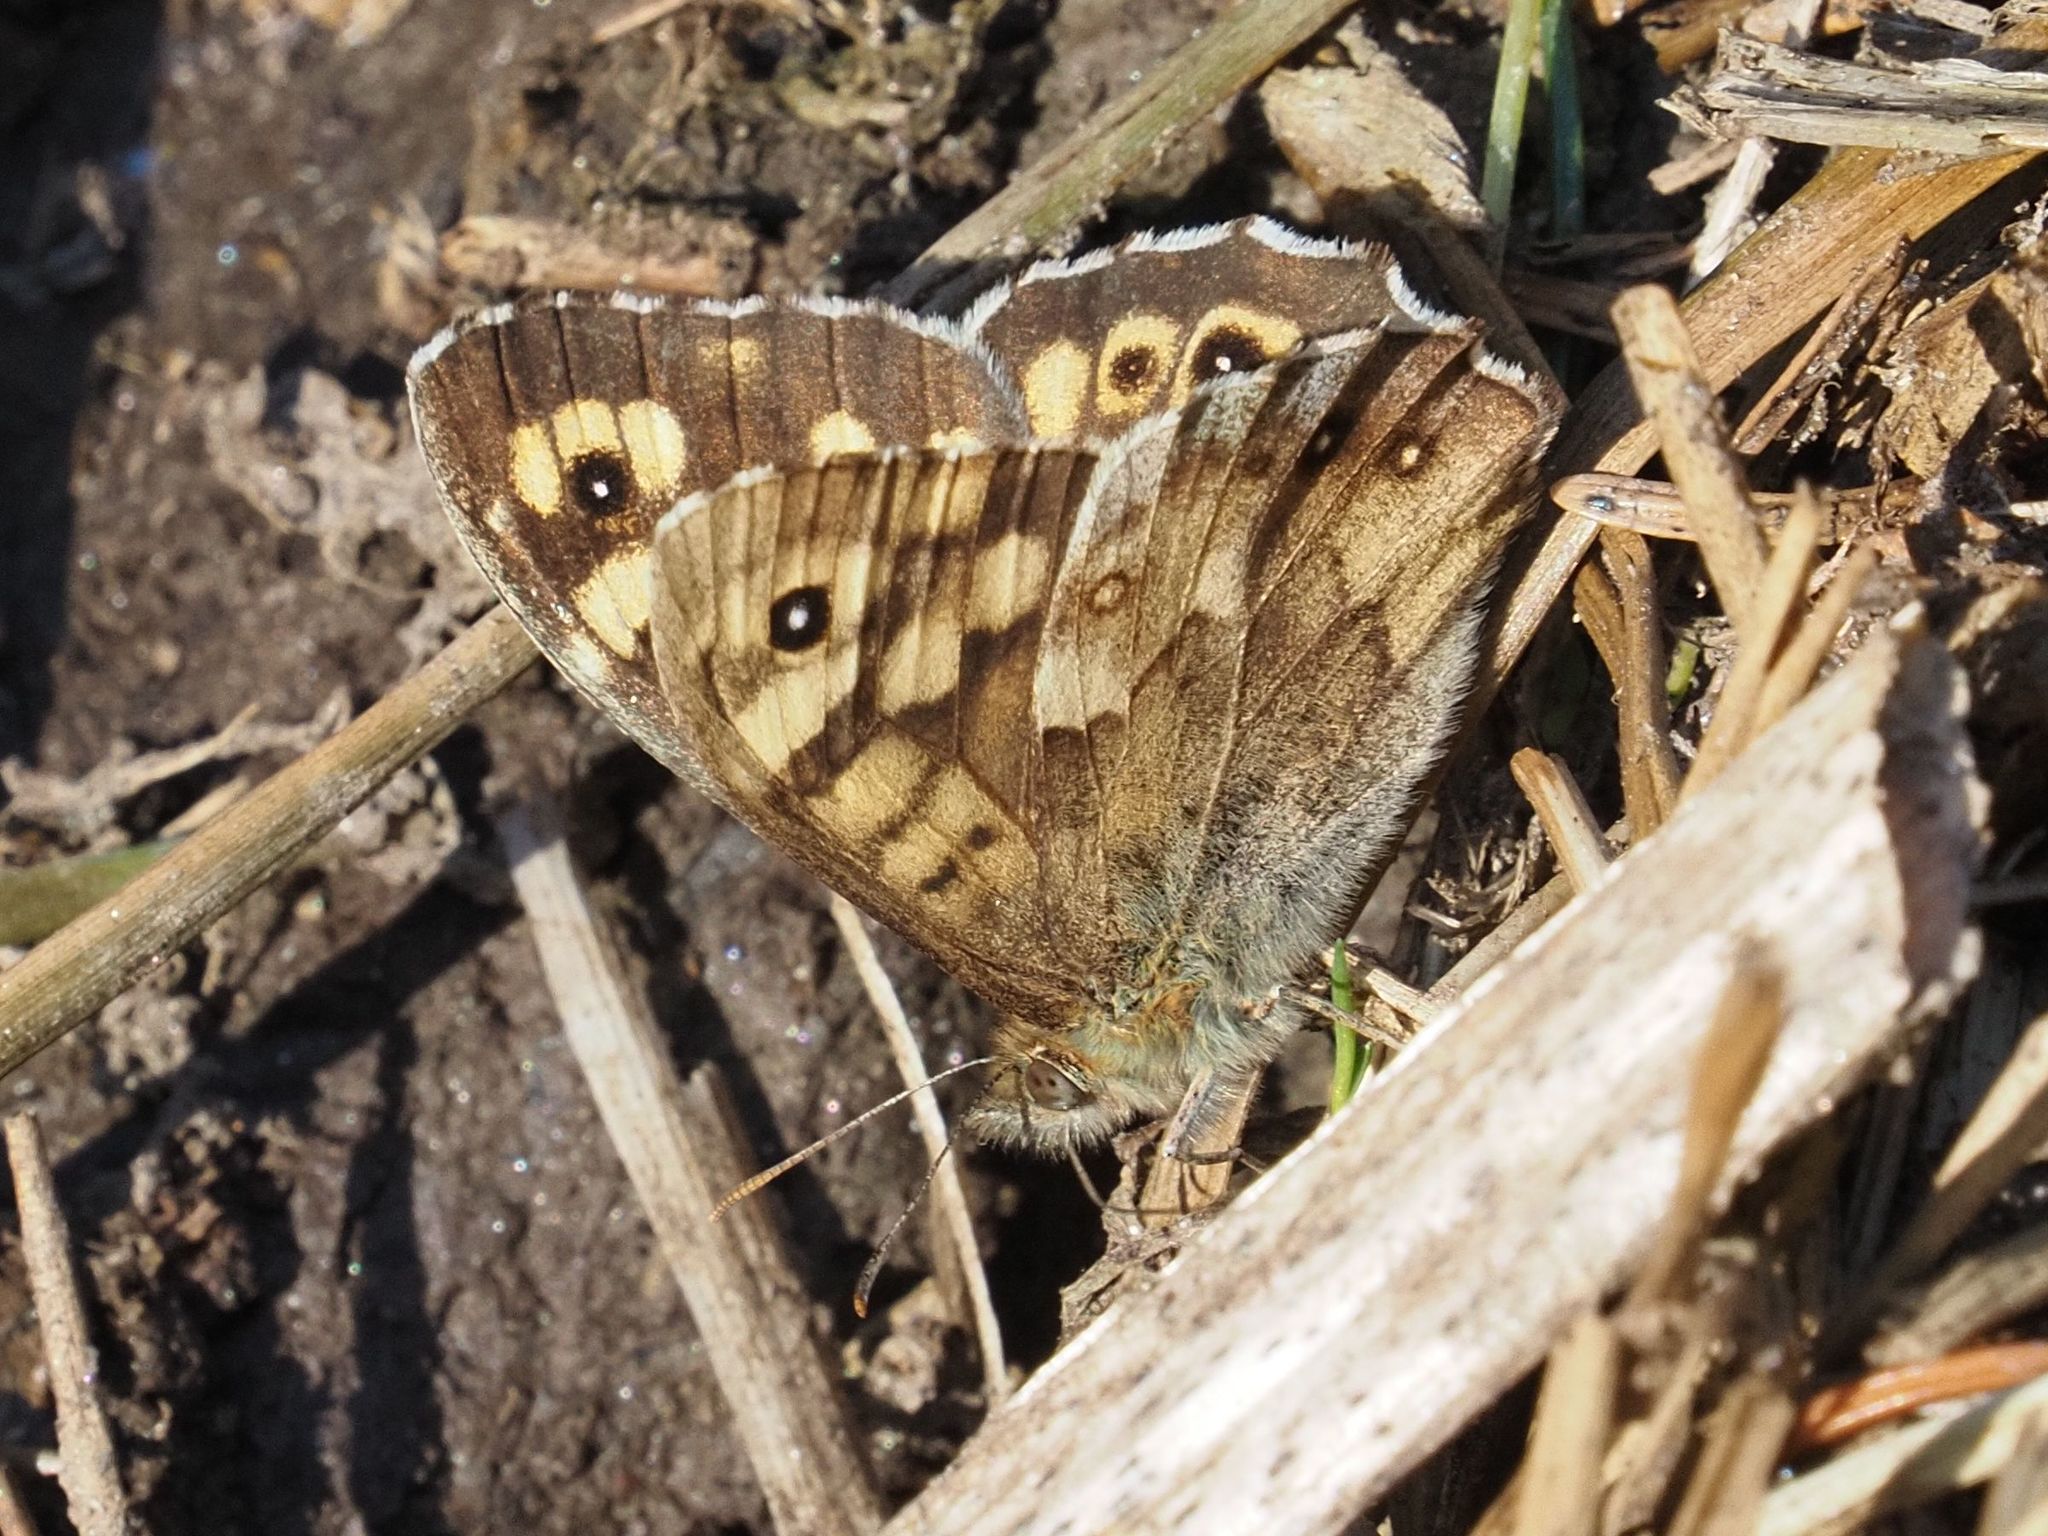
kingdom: Animalia
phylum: Arthropoda
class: Insecta
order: Lepidoptera
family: Nymphalidae
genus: Pararge
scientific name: Pararge aegeria
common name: Speckled wood
